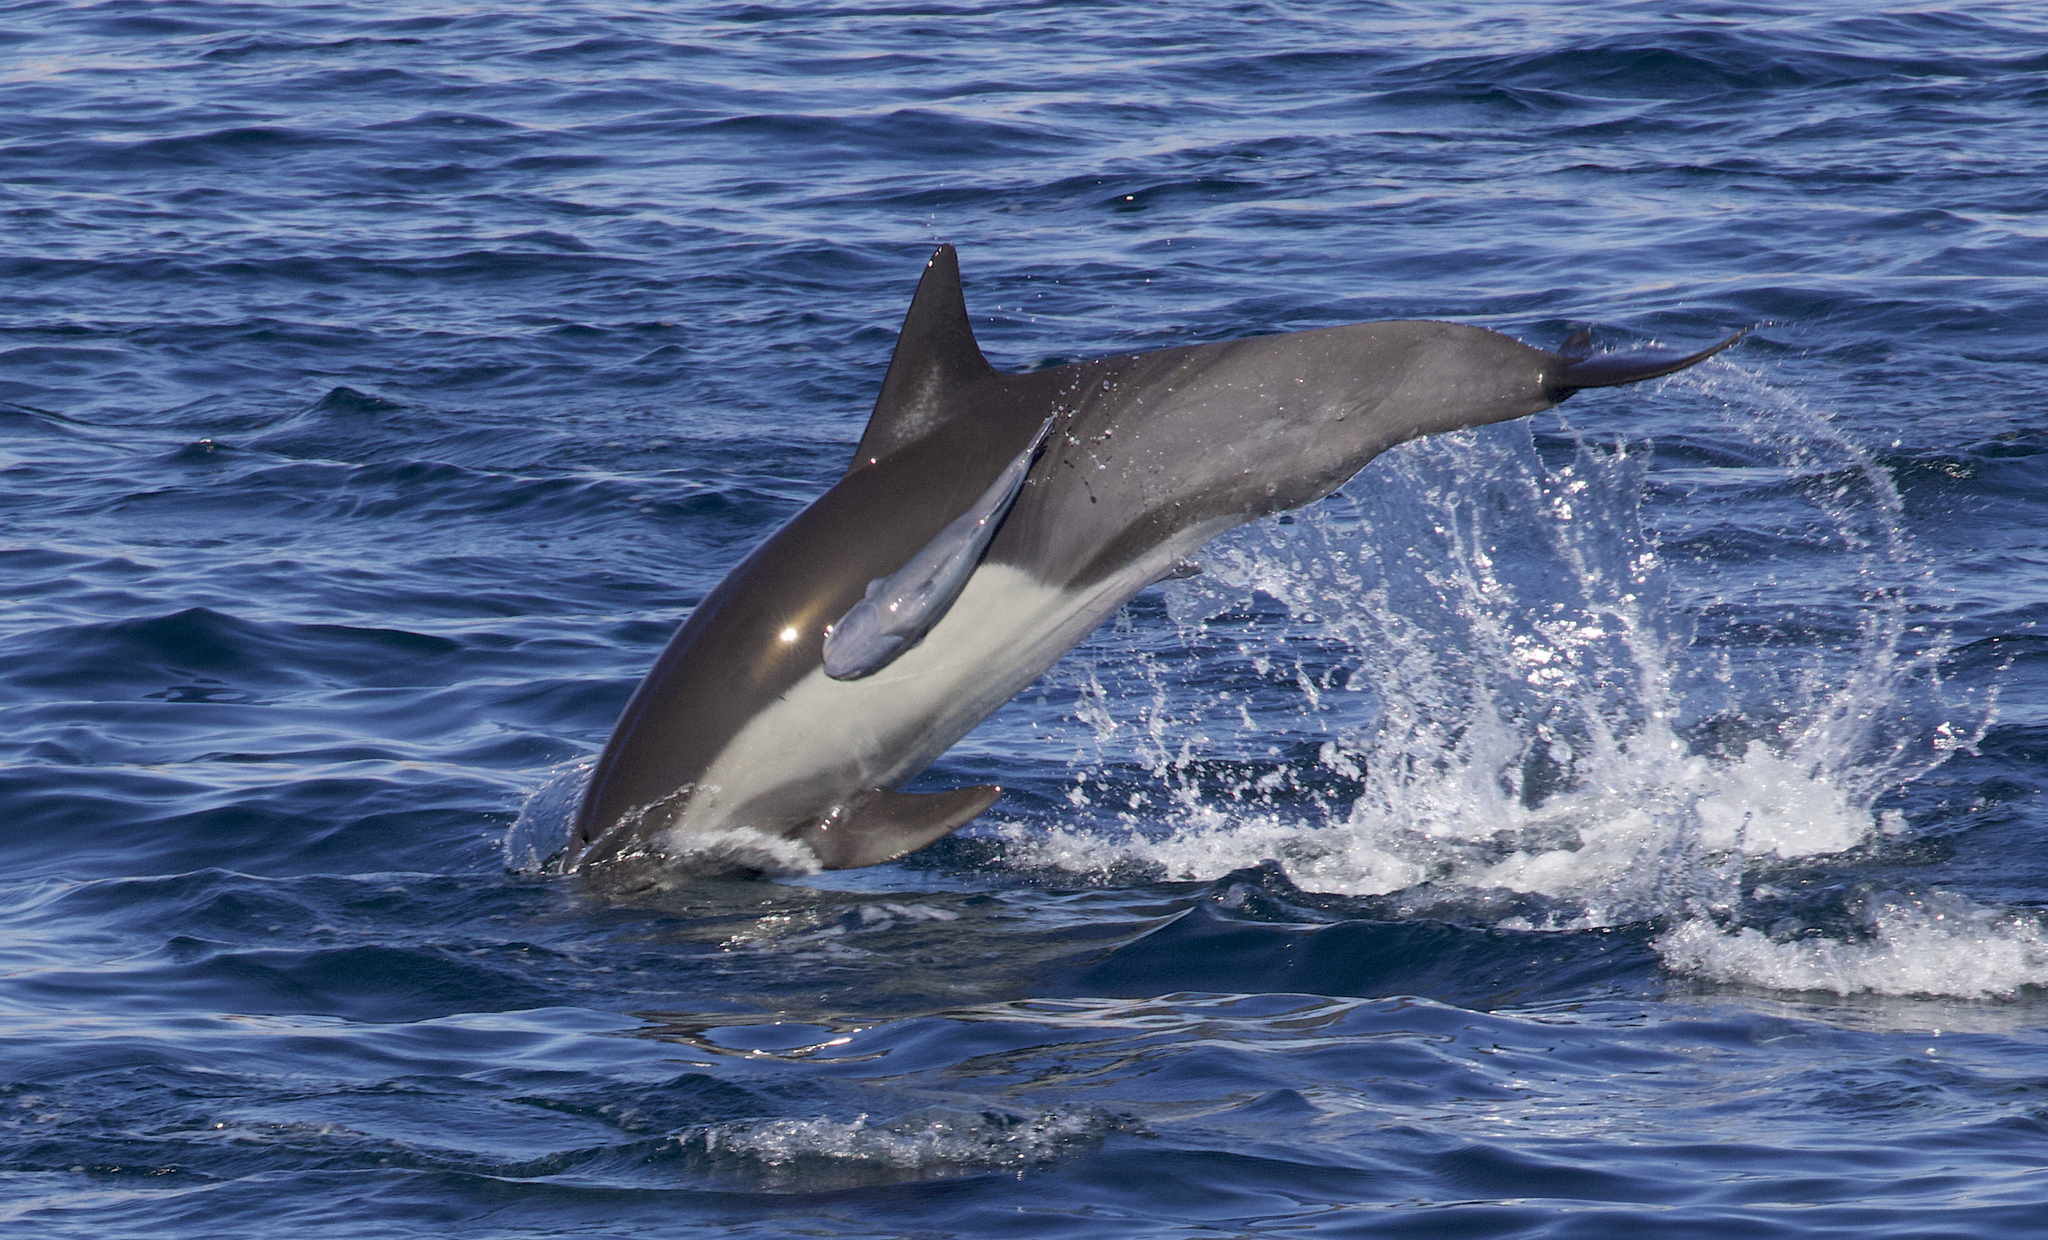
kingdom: Animalia
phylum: Chordata
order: Perciformes
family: Echeneidae
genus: Remora
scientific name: Remora australis
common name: Whalesucker
